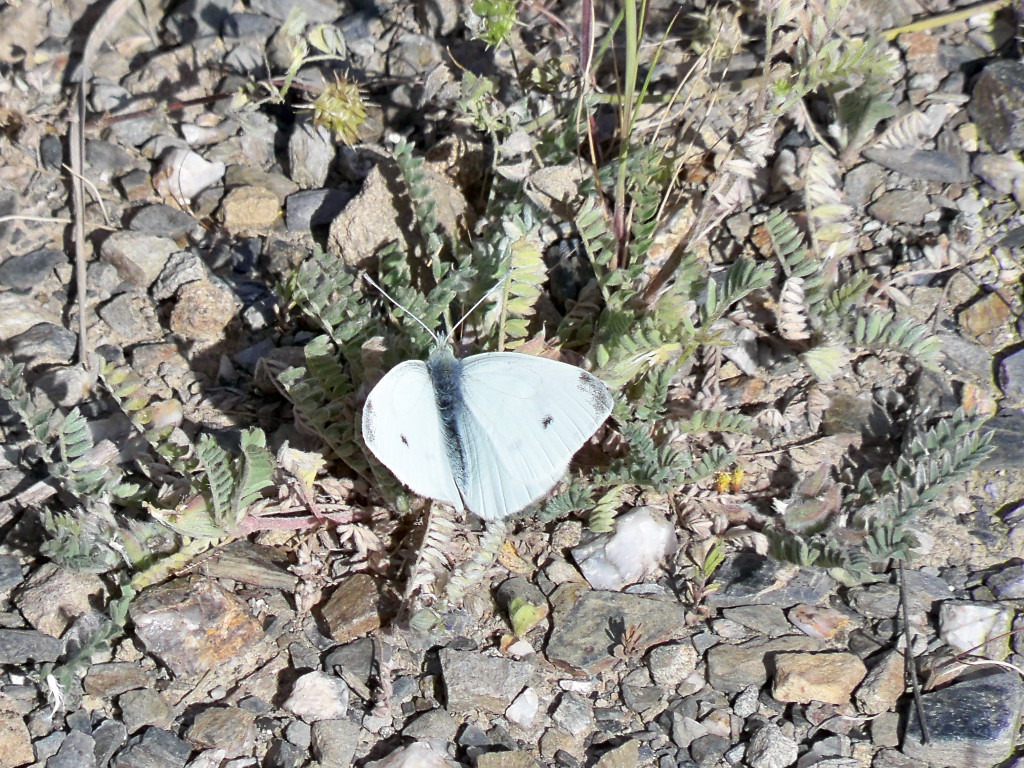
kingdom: Animalia
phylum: Arthropoda
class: Insecta
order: Lepidoptera
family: Pieridae
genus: Pieris
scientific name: Pieris rapae
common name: Small white
